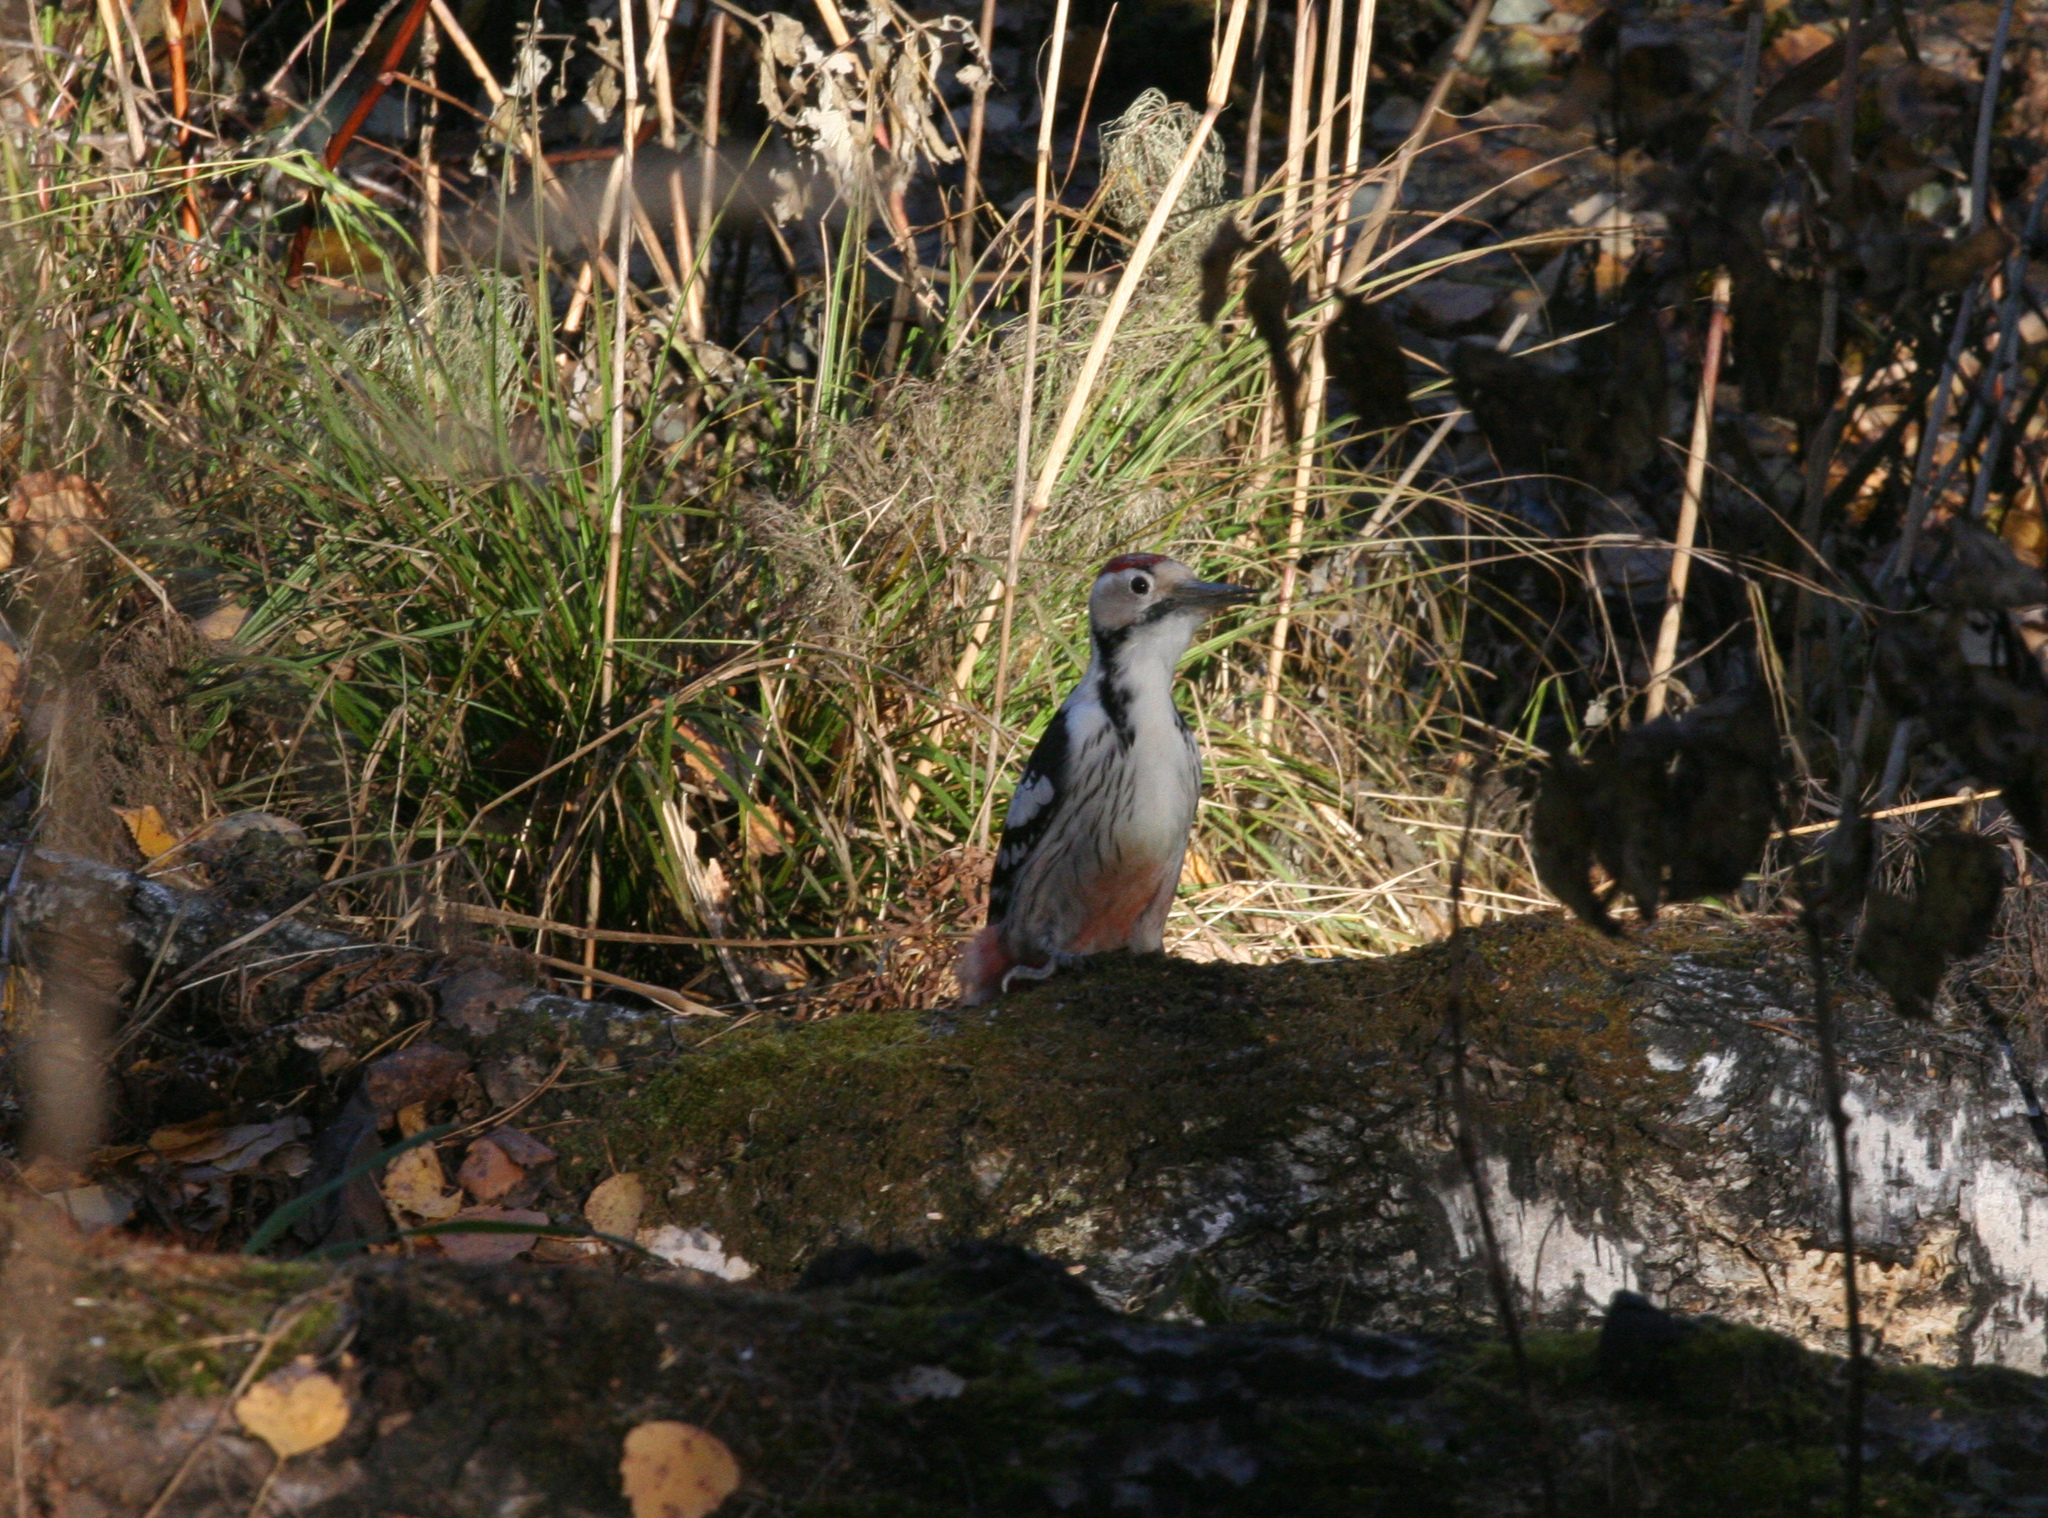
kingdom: Animalia
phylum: Chordata
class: Aves
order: Piciformes
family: Picidae
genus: Dendrocopos
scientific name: Dendrocopos leucotos
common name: White-backed woodpecker
